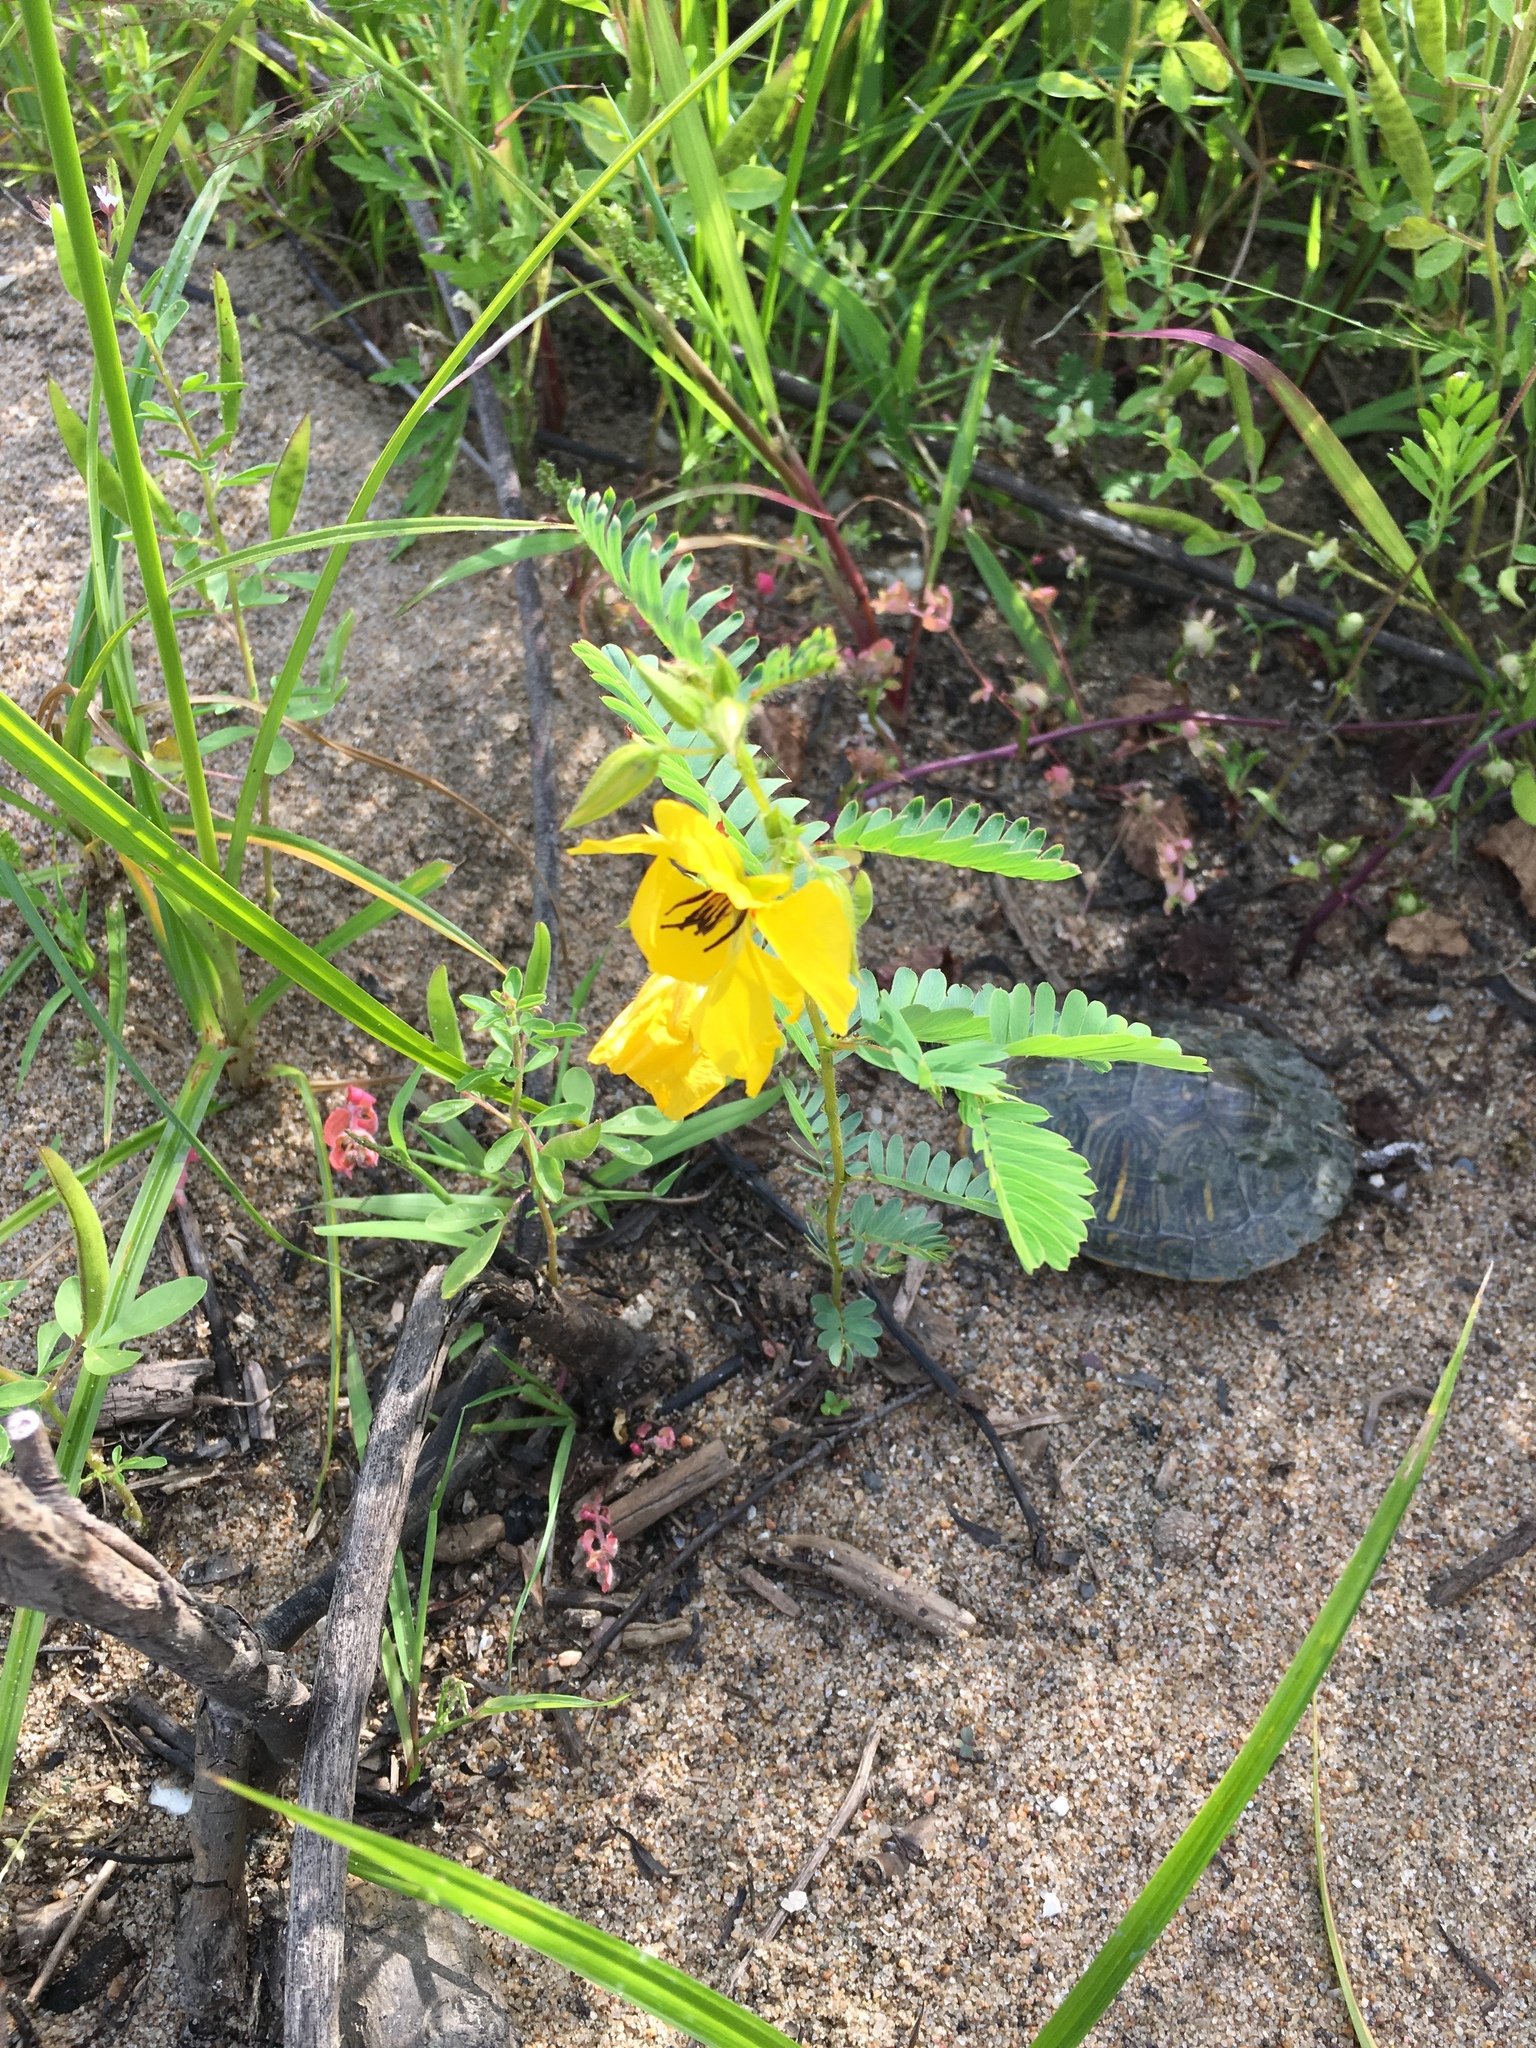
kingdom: Plantae
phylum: Tracheophyta
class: Magnoliopsida
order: Fabales
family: Fabaceae
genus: Chamaecrista
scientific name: Chamaecrista fasciculata
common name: Golden cassia
